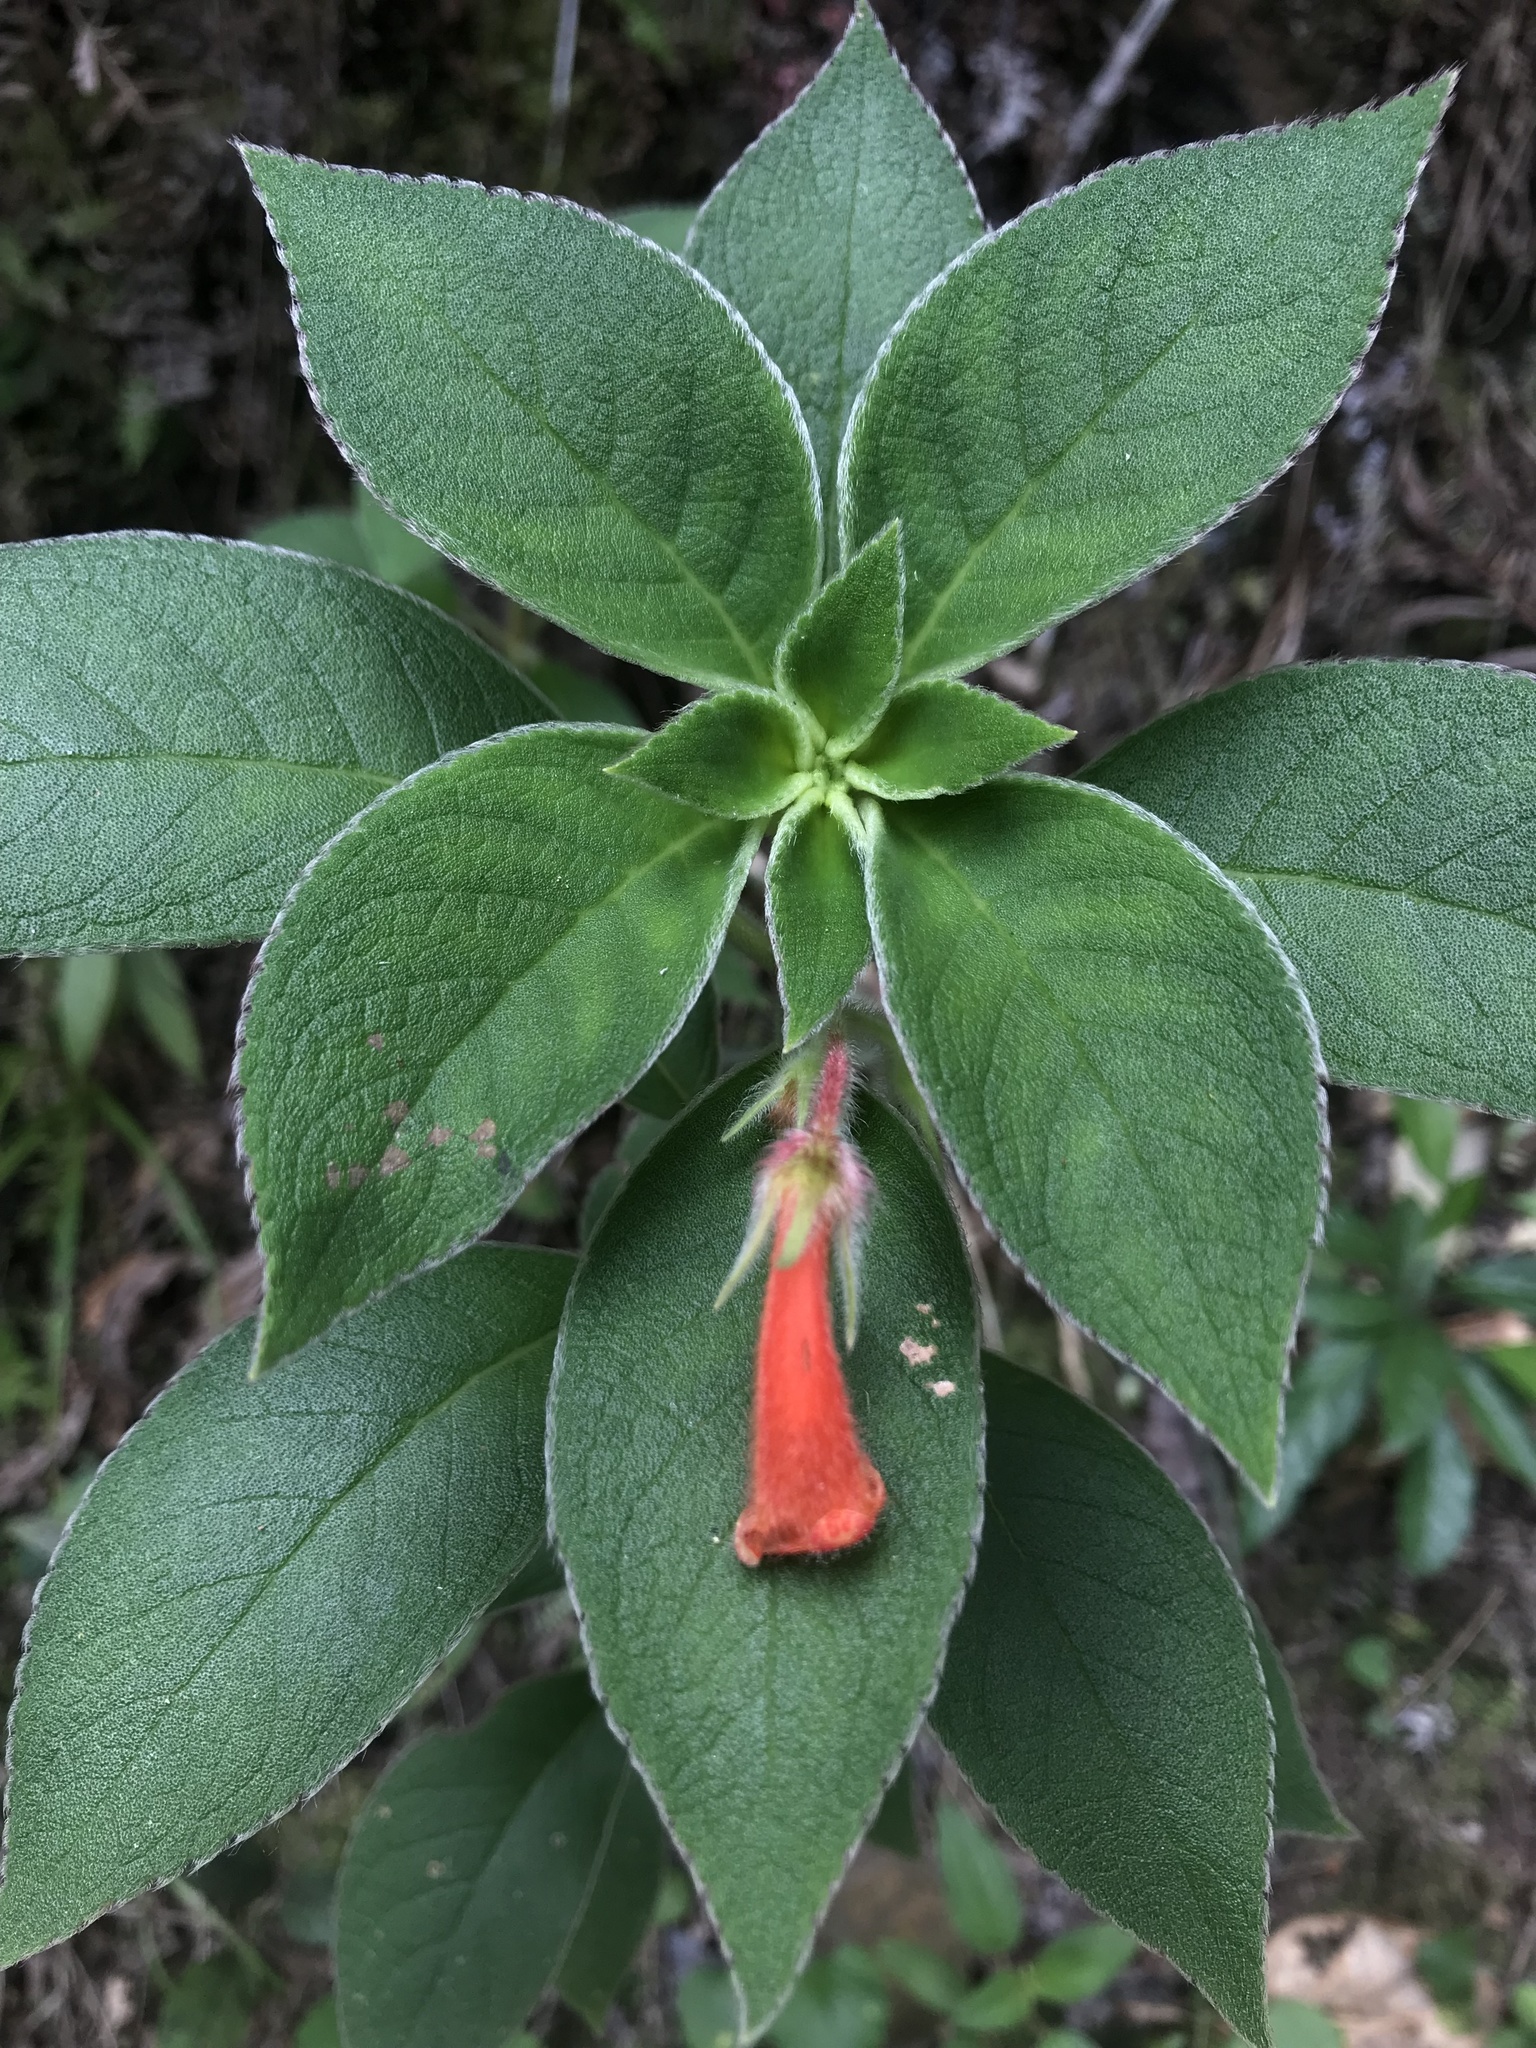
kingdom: Plantae
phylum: Tracheophyta
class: Magnoliopsida
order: Lamiales
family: Gesneriaceae
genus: Kohleria
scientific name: Kohleria hirsuta
